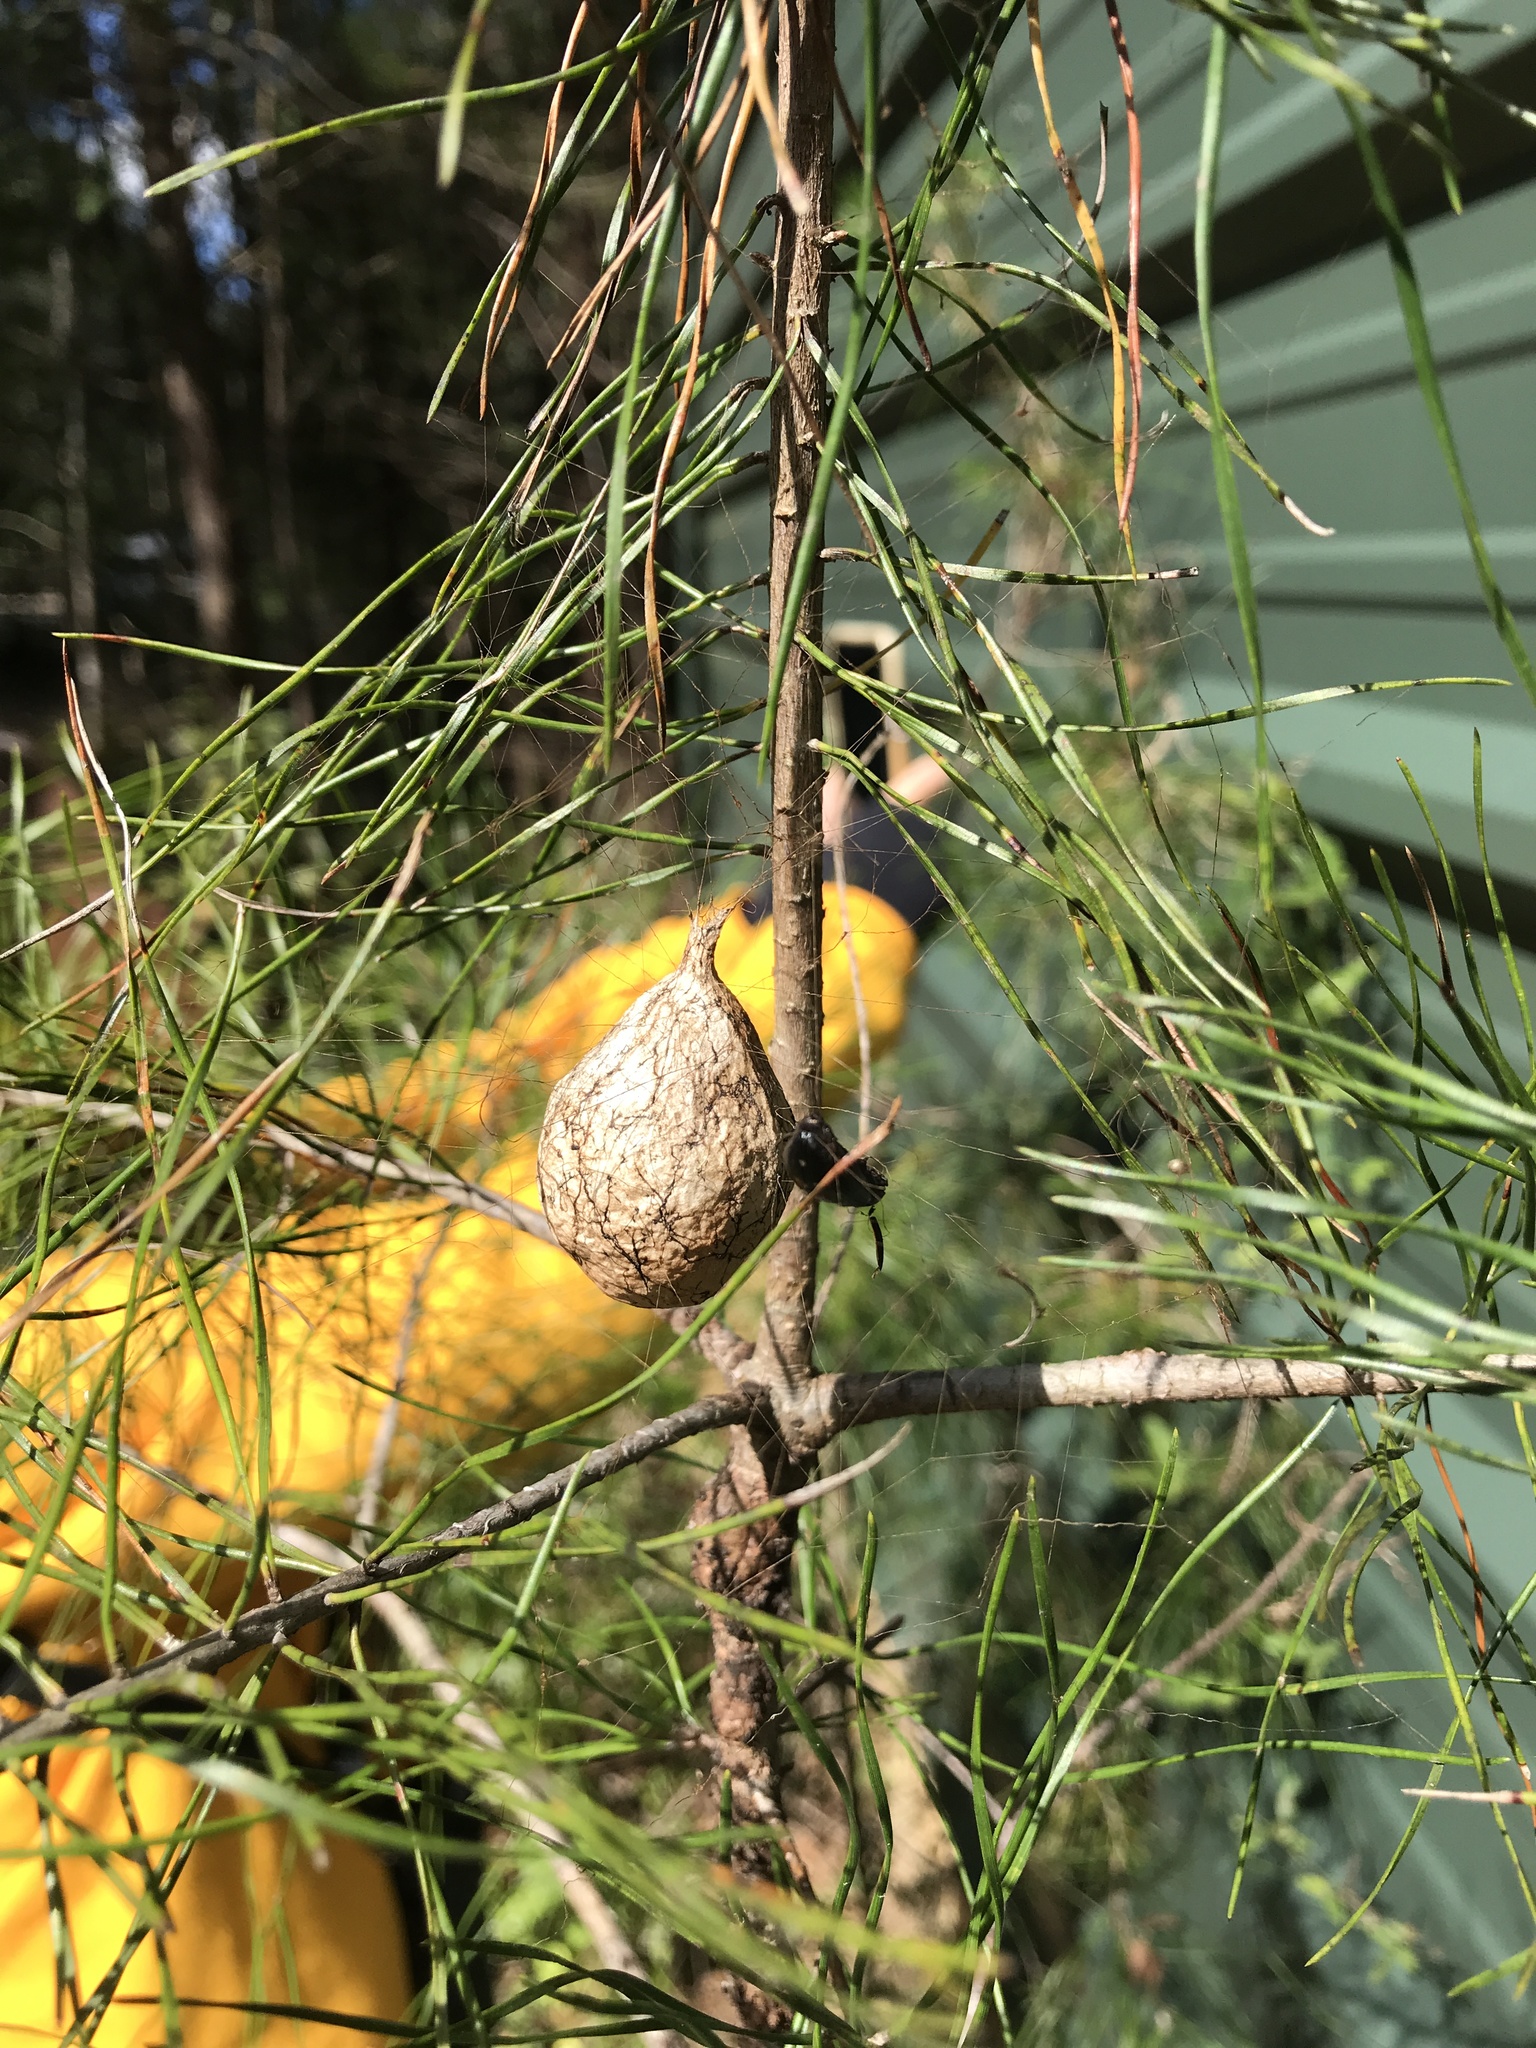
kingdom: Animalia
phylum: Arthropoda
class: Arachnida
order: Araneae
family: Araneidae
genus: Argiope
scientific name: Argiope aurantia
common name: Orb weavers
